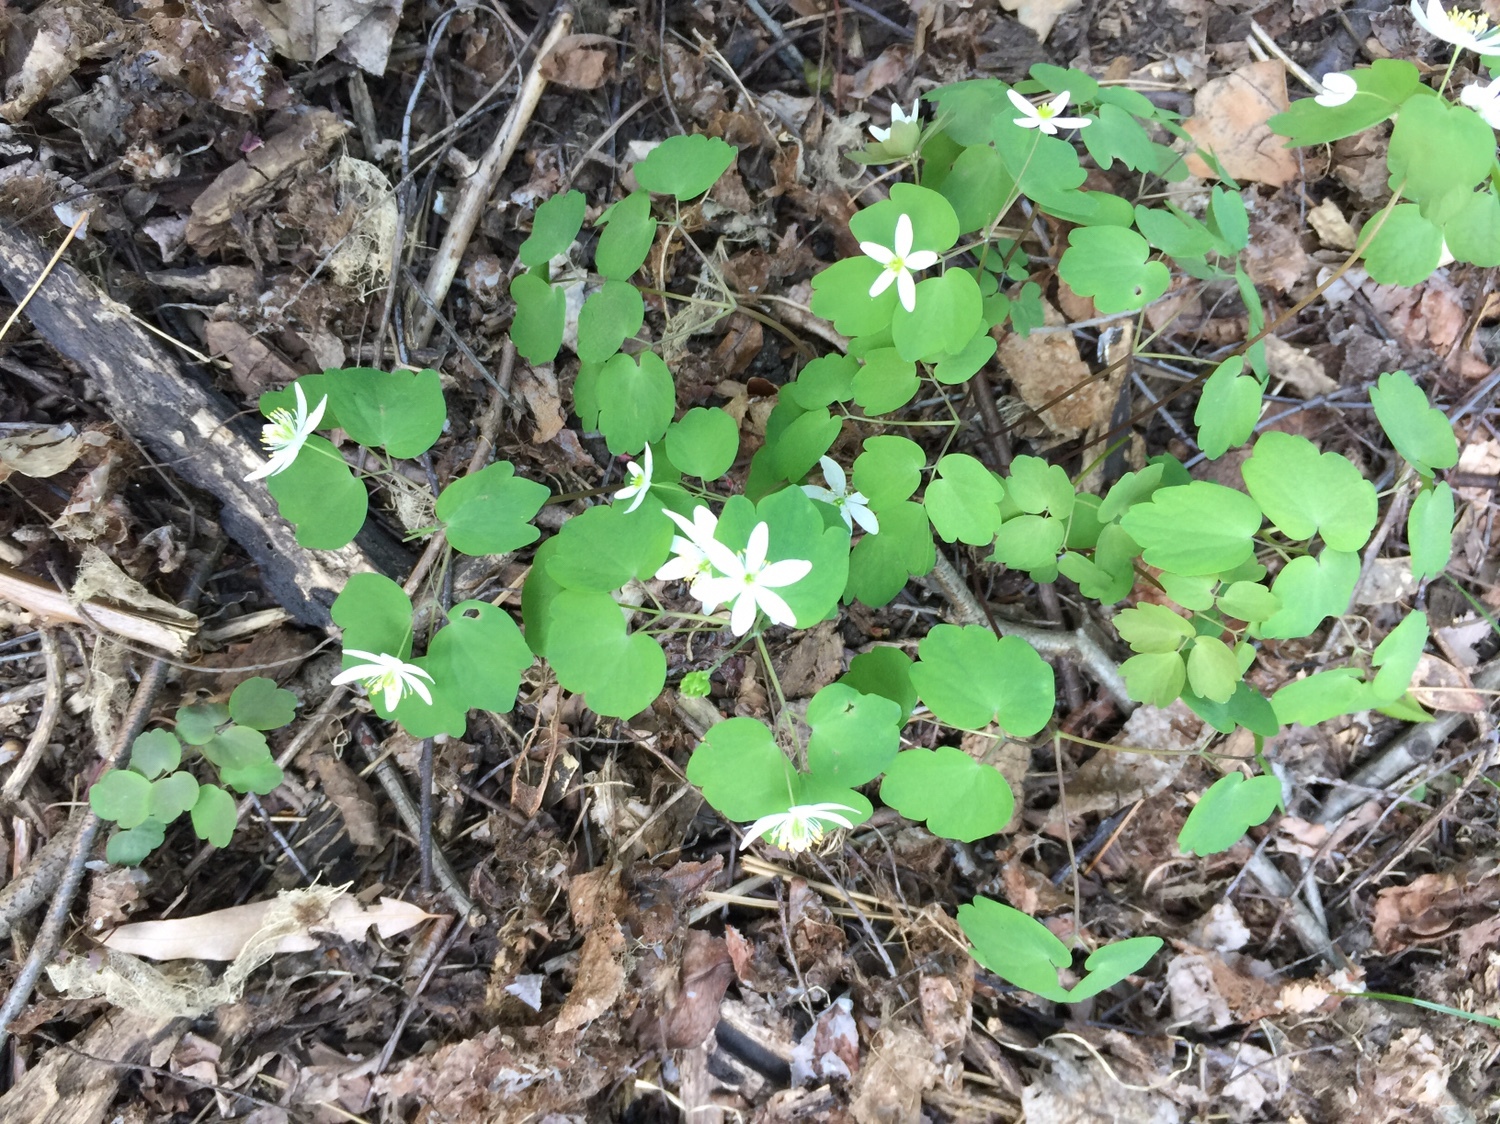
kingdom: Plantae
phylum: Tracheophyta
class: Magnoliopsida
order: Ranunculales
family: Ranunculaceae
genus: Thalictrum
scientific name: Thalictrum thalictroides
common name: Rue-anemone
